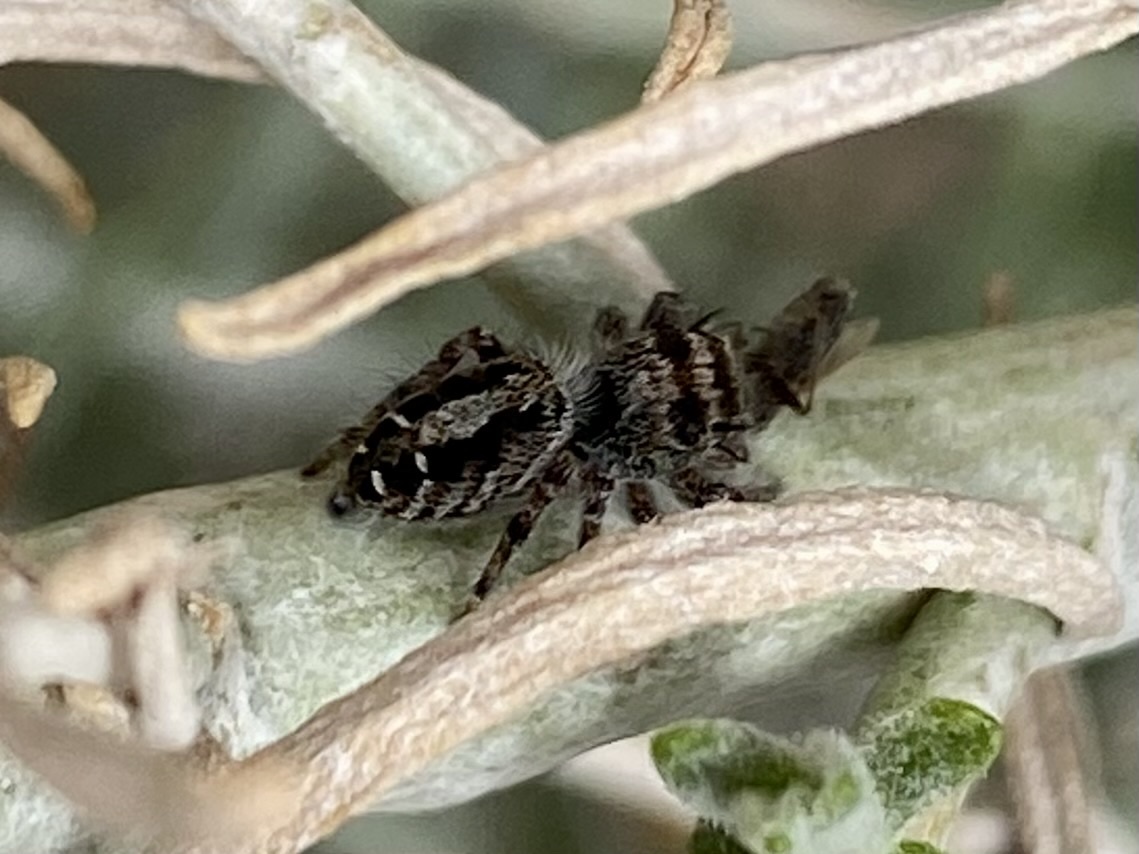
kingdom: Animalia
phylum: Arthropoda
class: Arachnida
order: Araneae
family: Salticidae
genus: Phidippus
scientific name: Phidippus comatus
